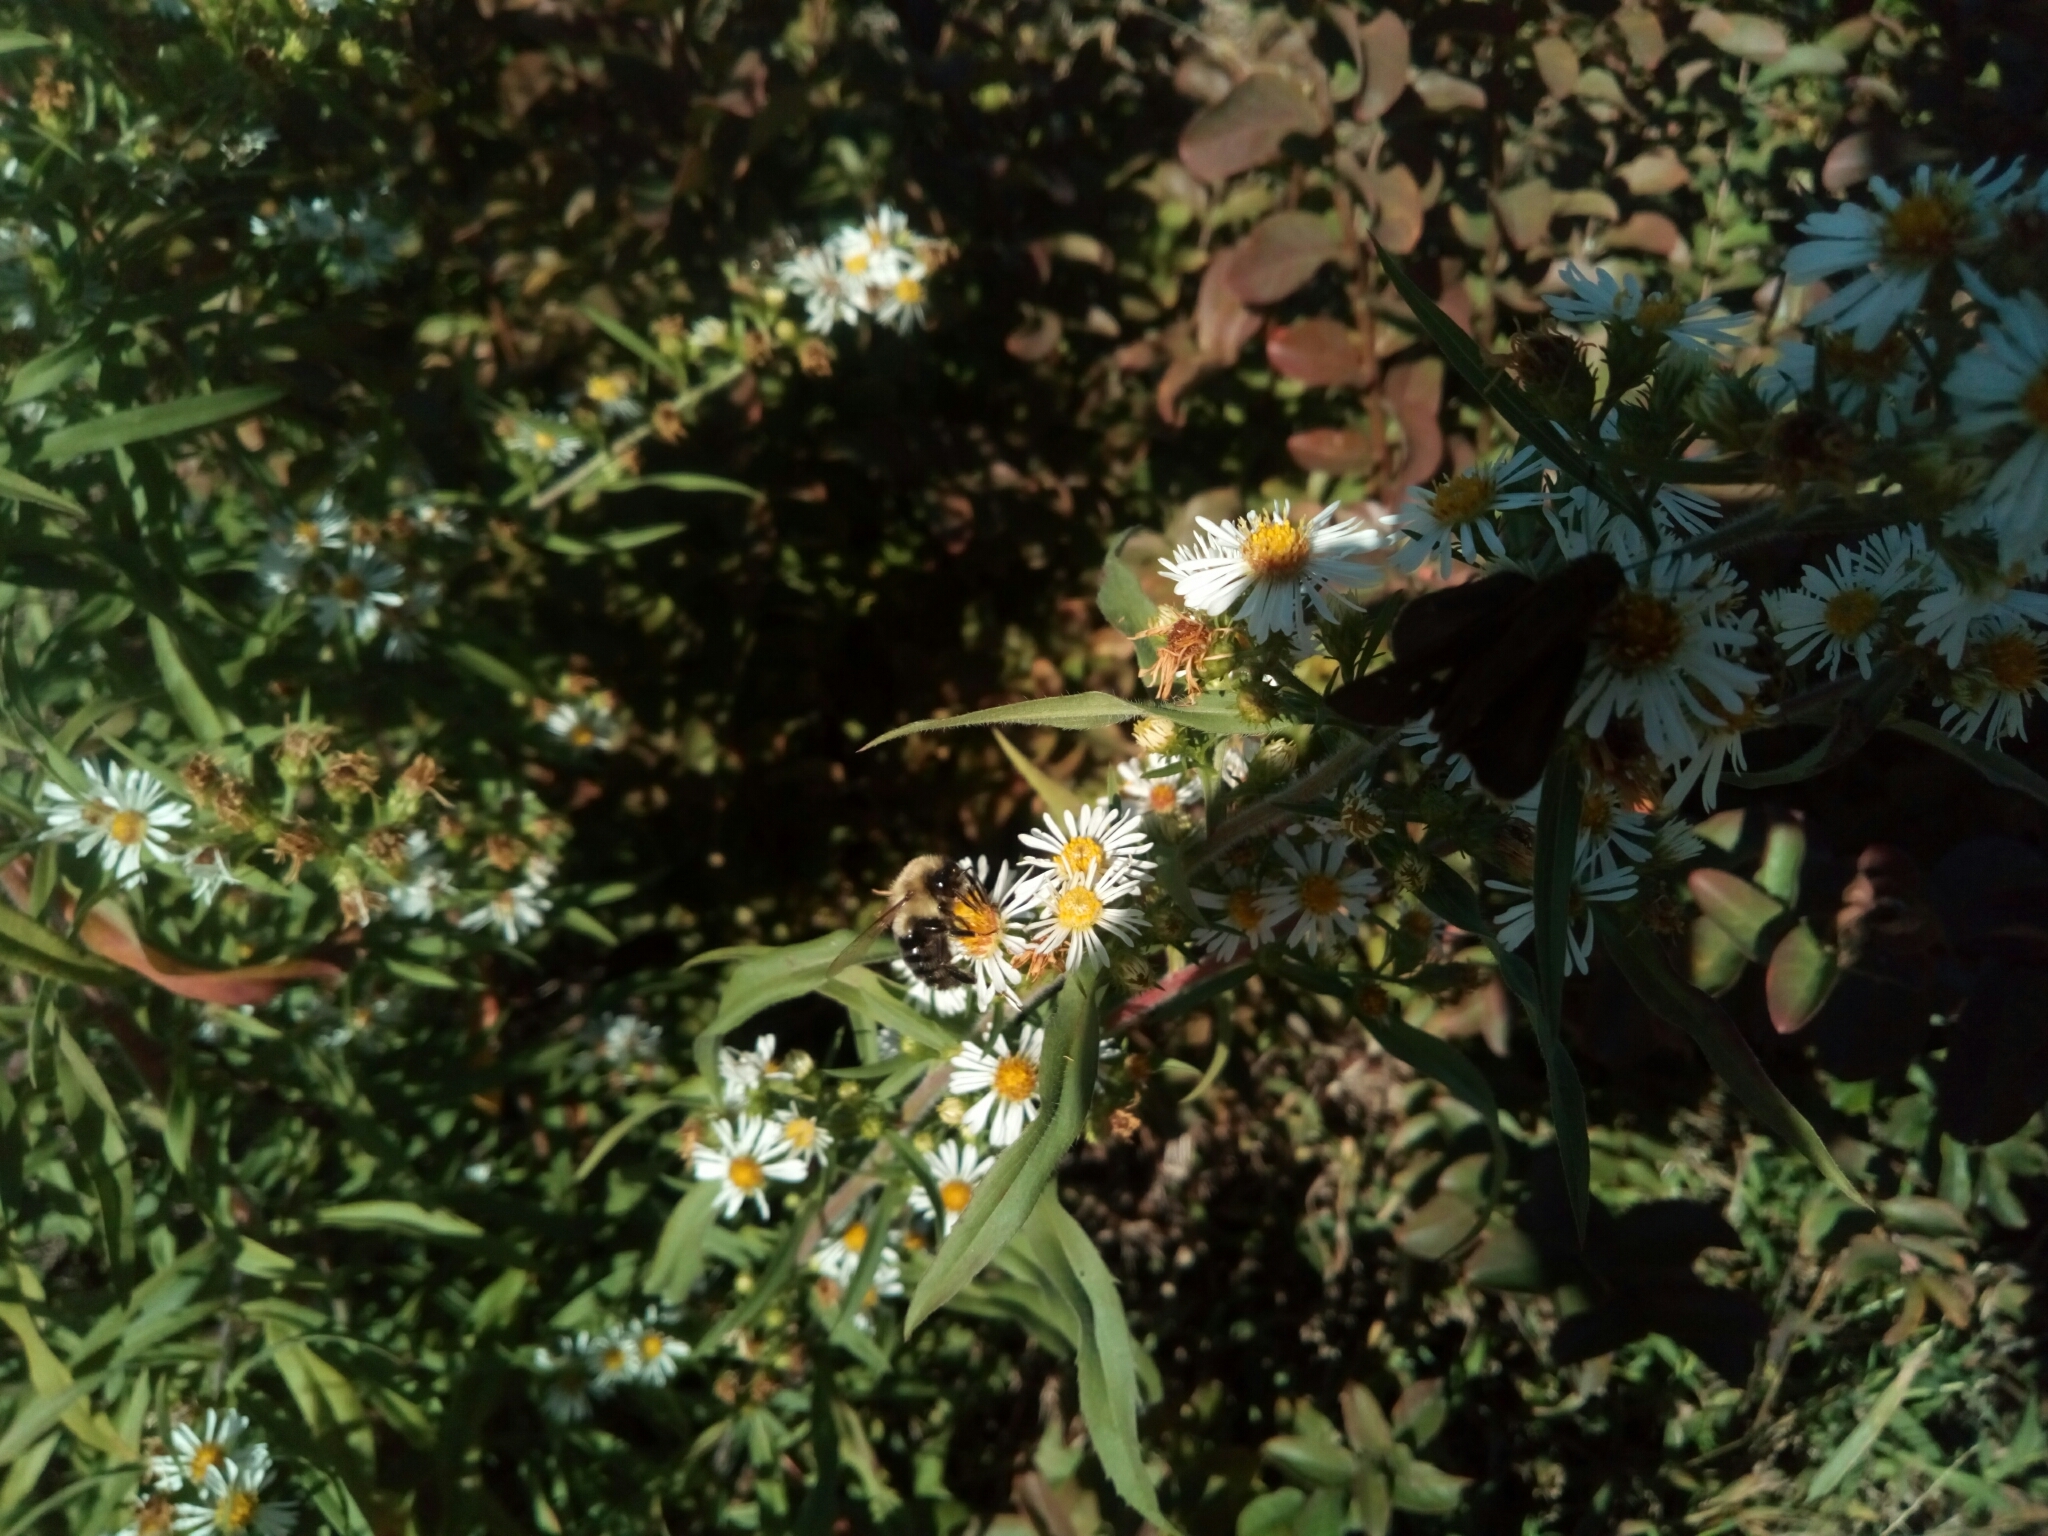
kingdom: Animalia
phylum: Arthropoda
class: Insecta
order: Hymenoptera
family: Apidae
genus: Bombus
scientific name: Bombus impatiens
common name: Common eastern bumble bee
